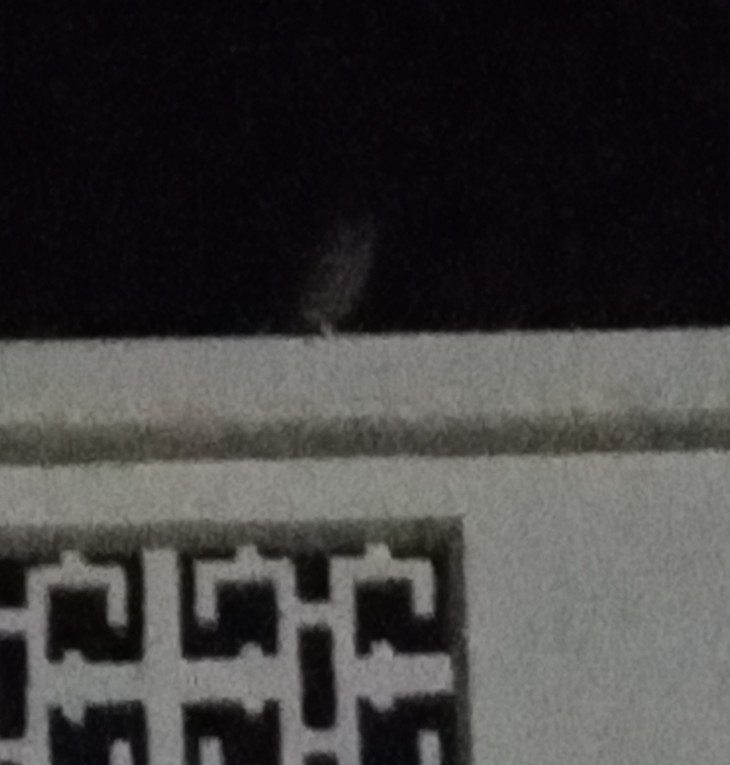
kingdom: Animalia
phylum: Chordata
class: Aves
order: Strigiformes
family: Strigidae
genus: Athene
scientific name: Athene noctua
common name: Little owl
